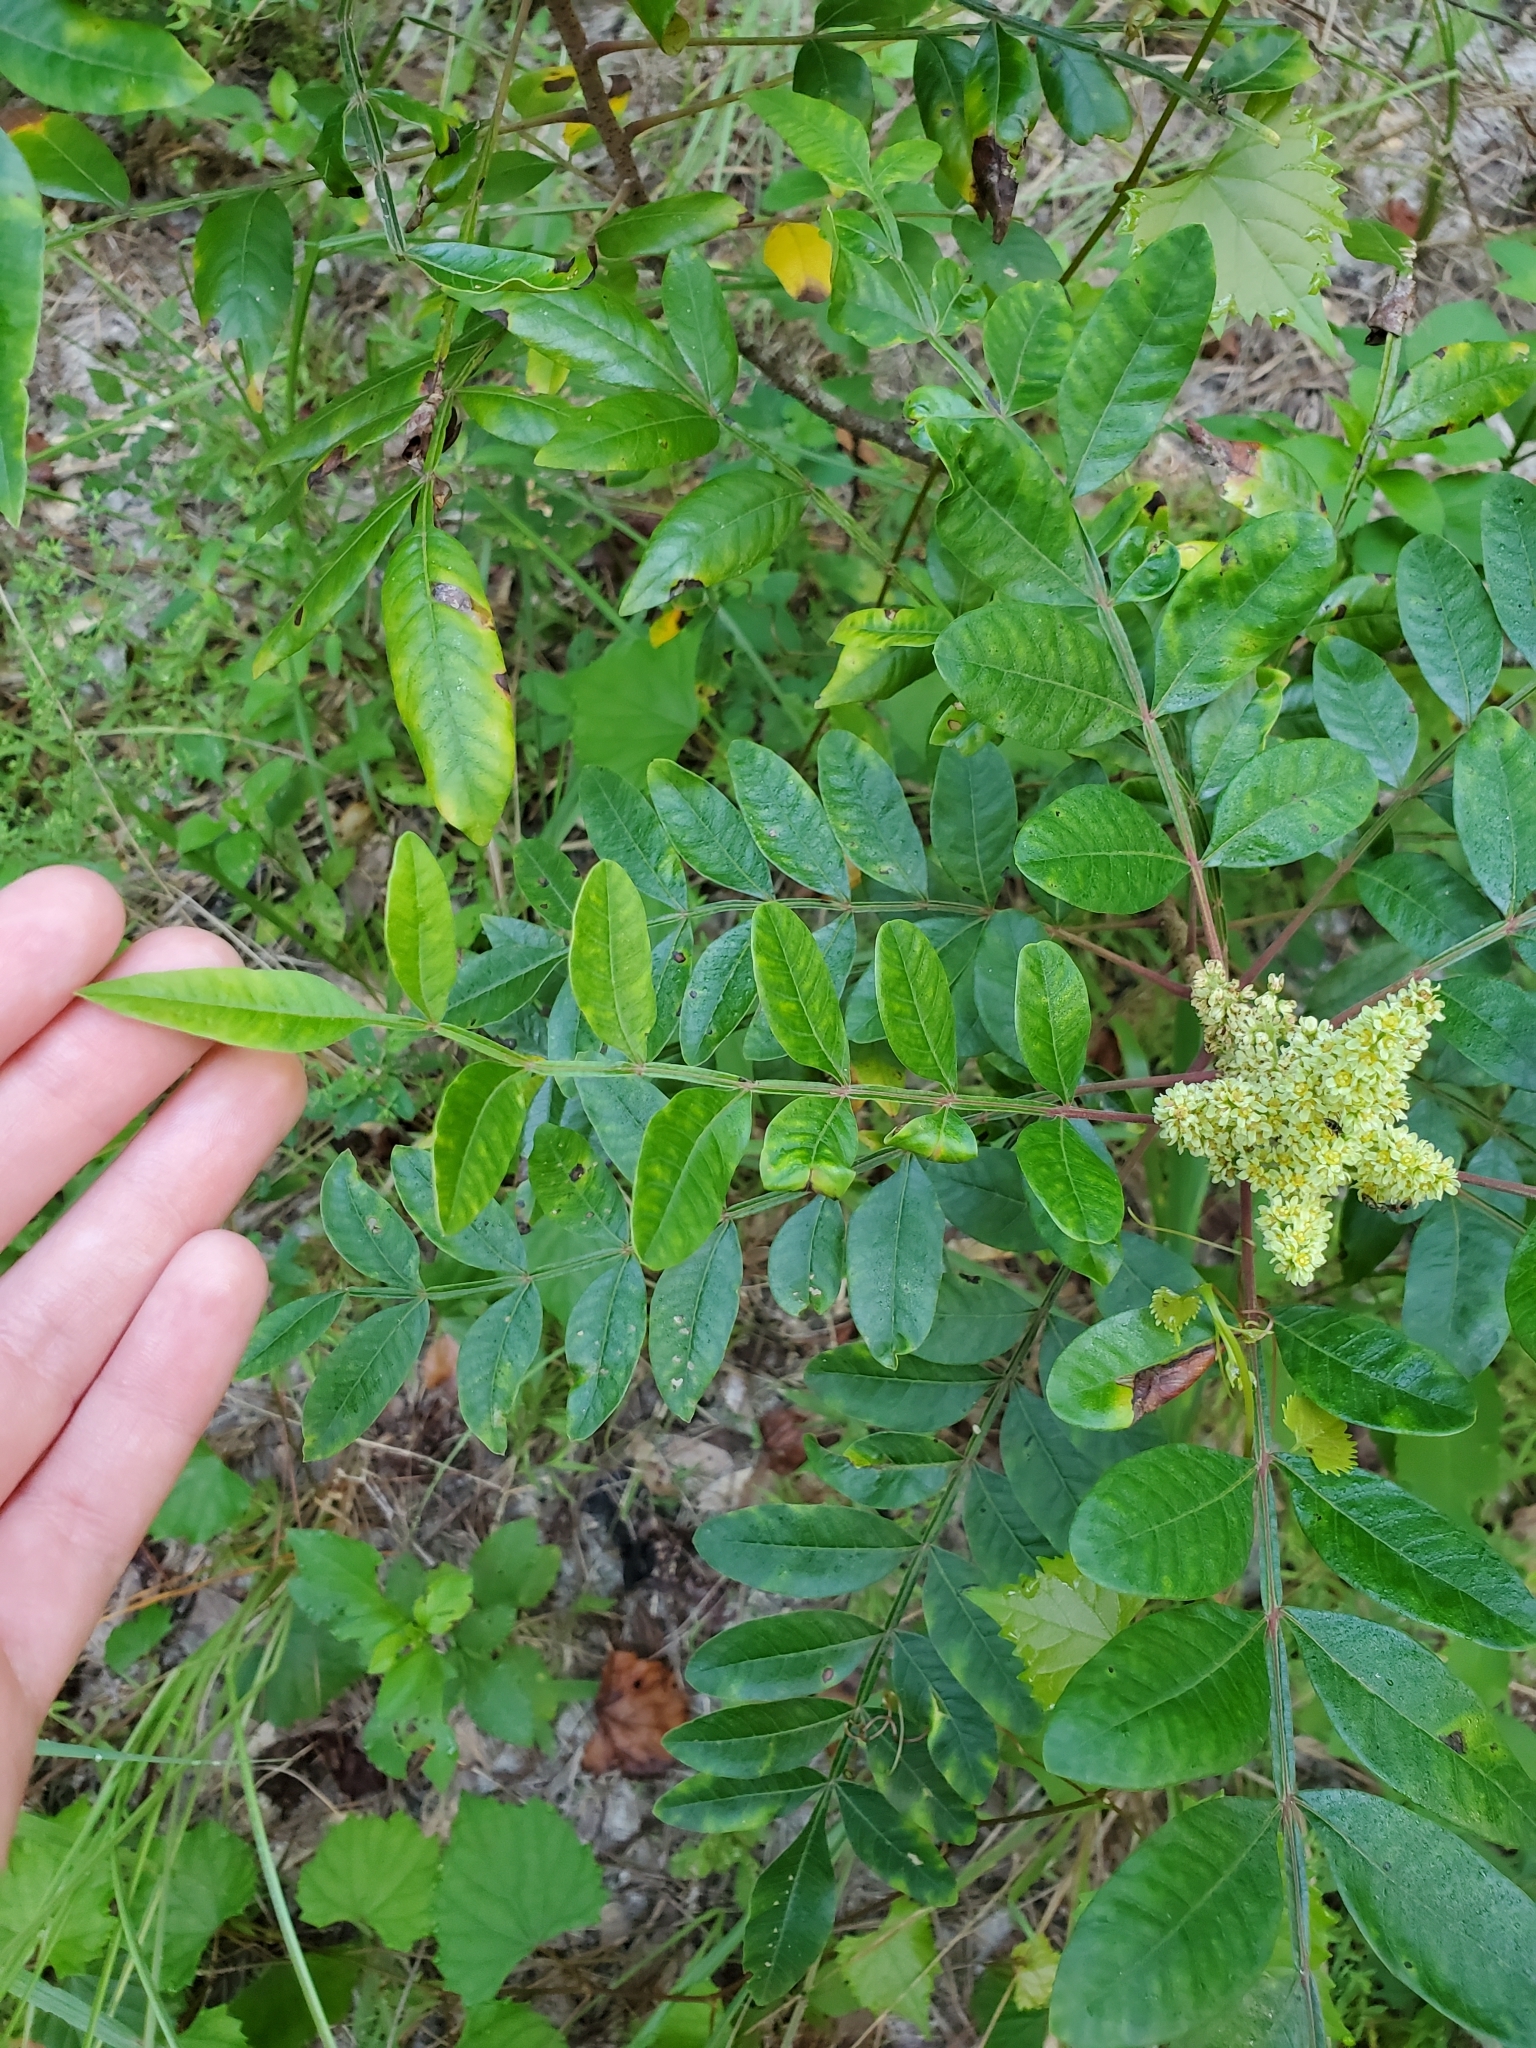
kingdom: Plantae
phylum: Tracheophyta
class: Magnoliopsida
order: Sapindales
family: Anacardiaceae
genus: Rhus
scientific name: Rhus copallina
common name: Shining sumac
